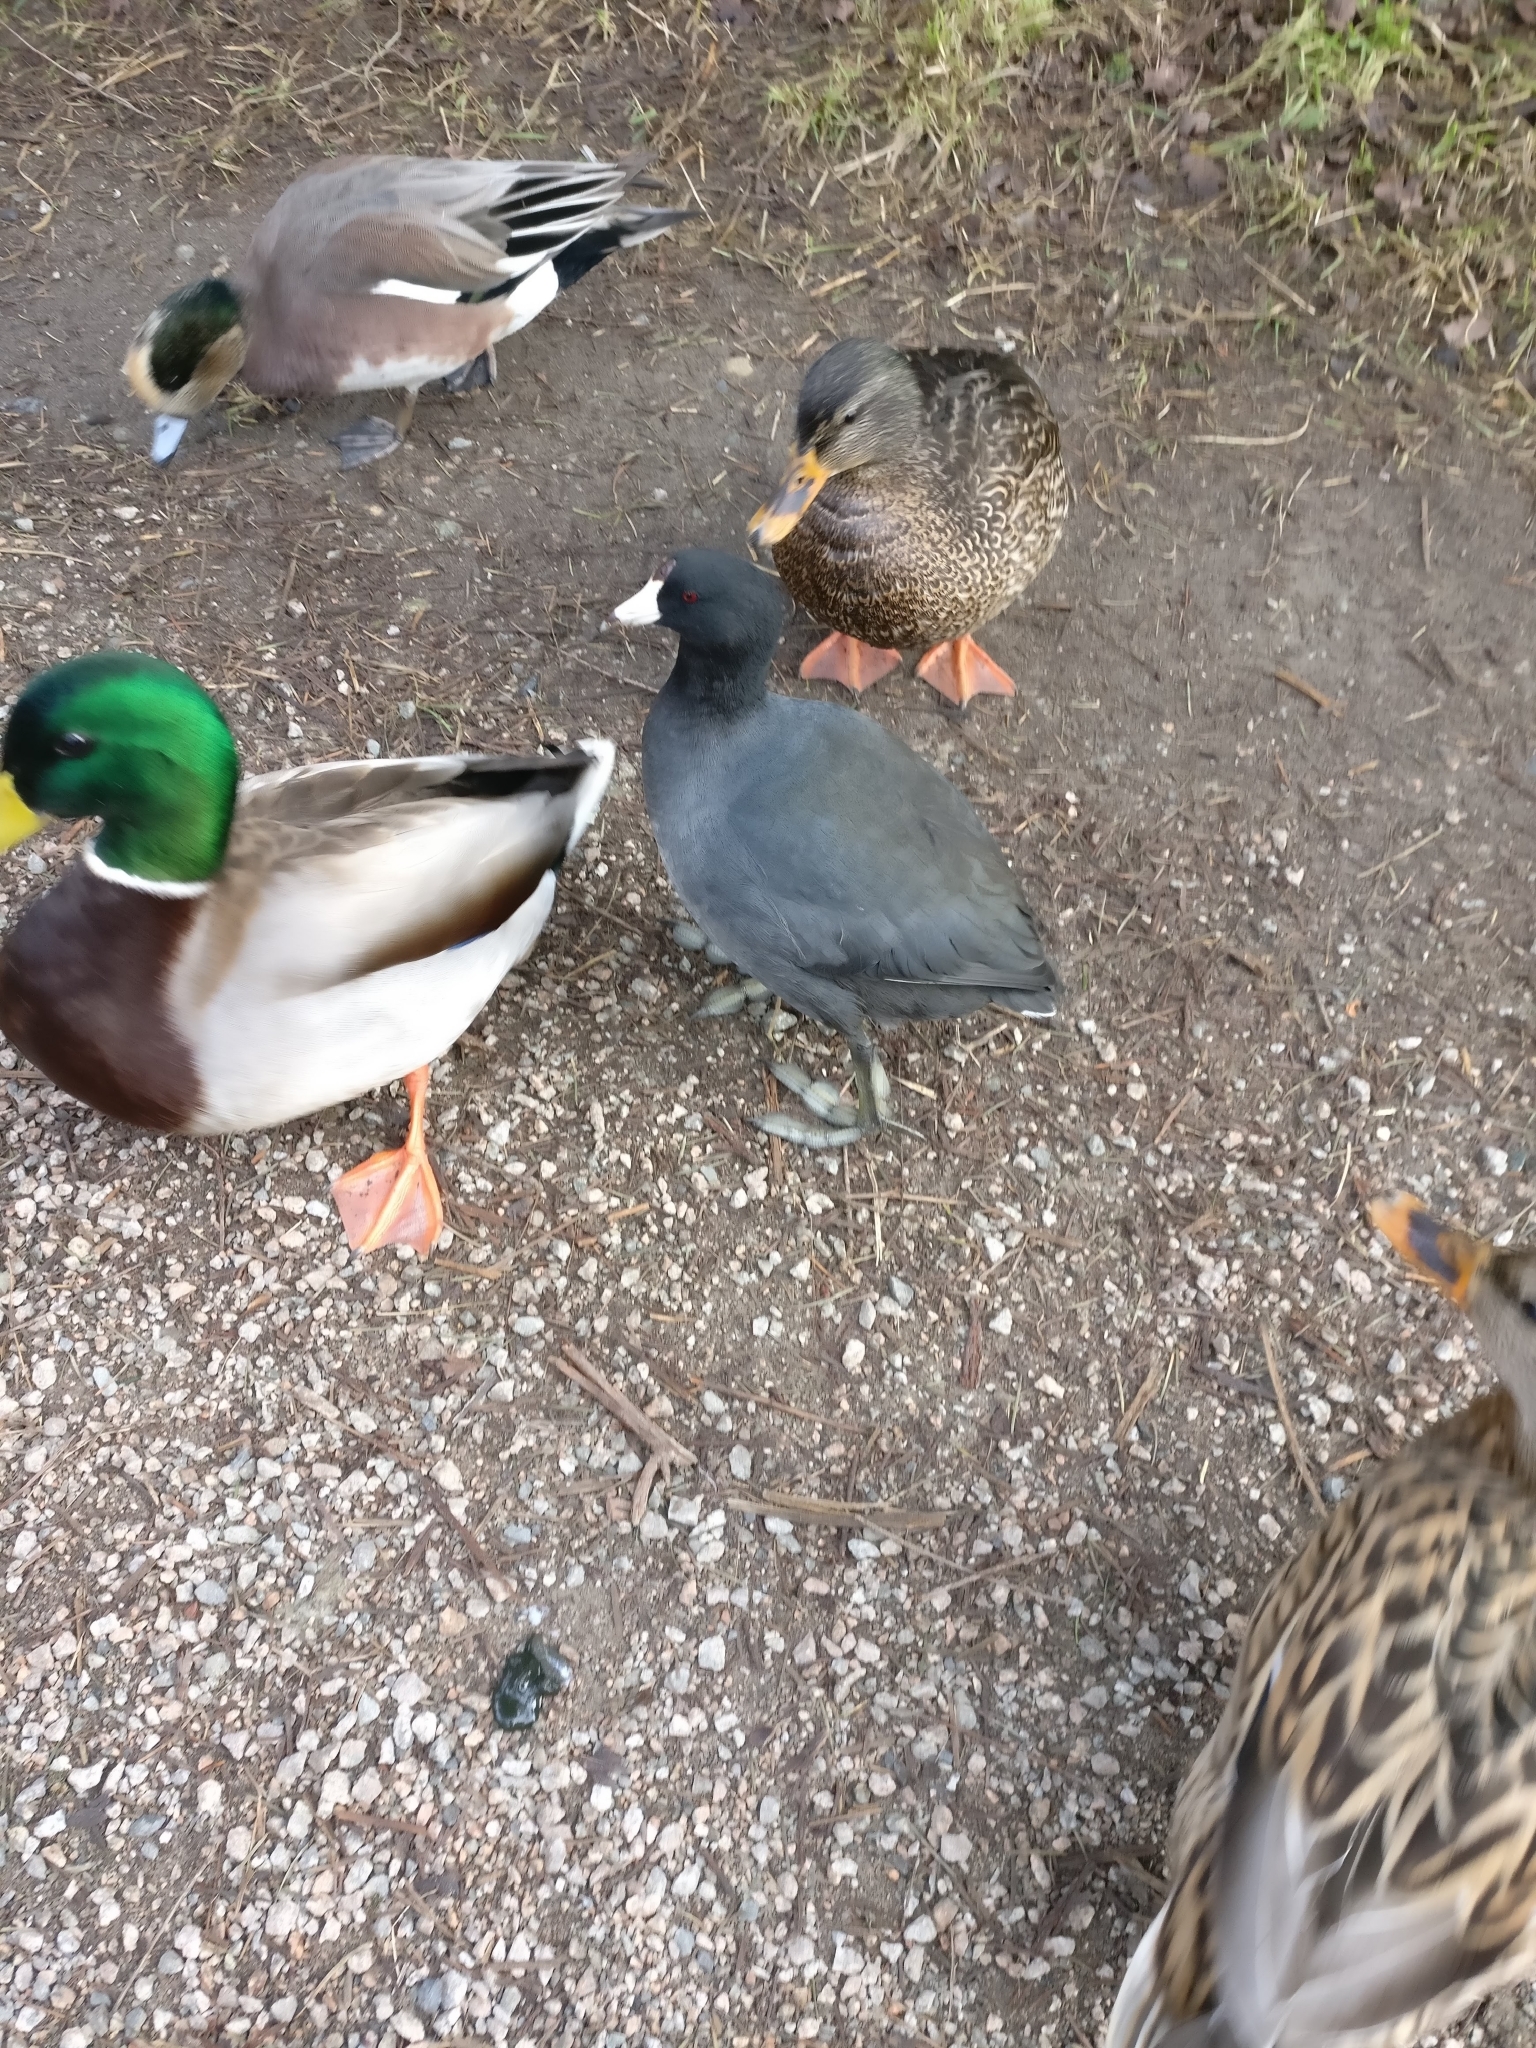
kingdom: Animalia
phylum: Chordata
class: Aves
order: Gruiformes
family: Rallidae
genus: Fulica
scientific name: Fulica americana
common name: American coot
